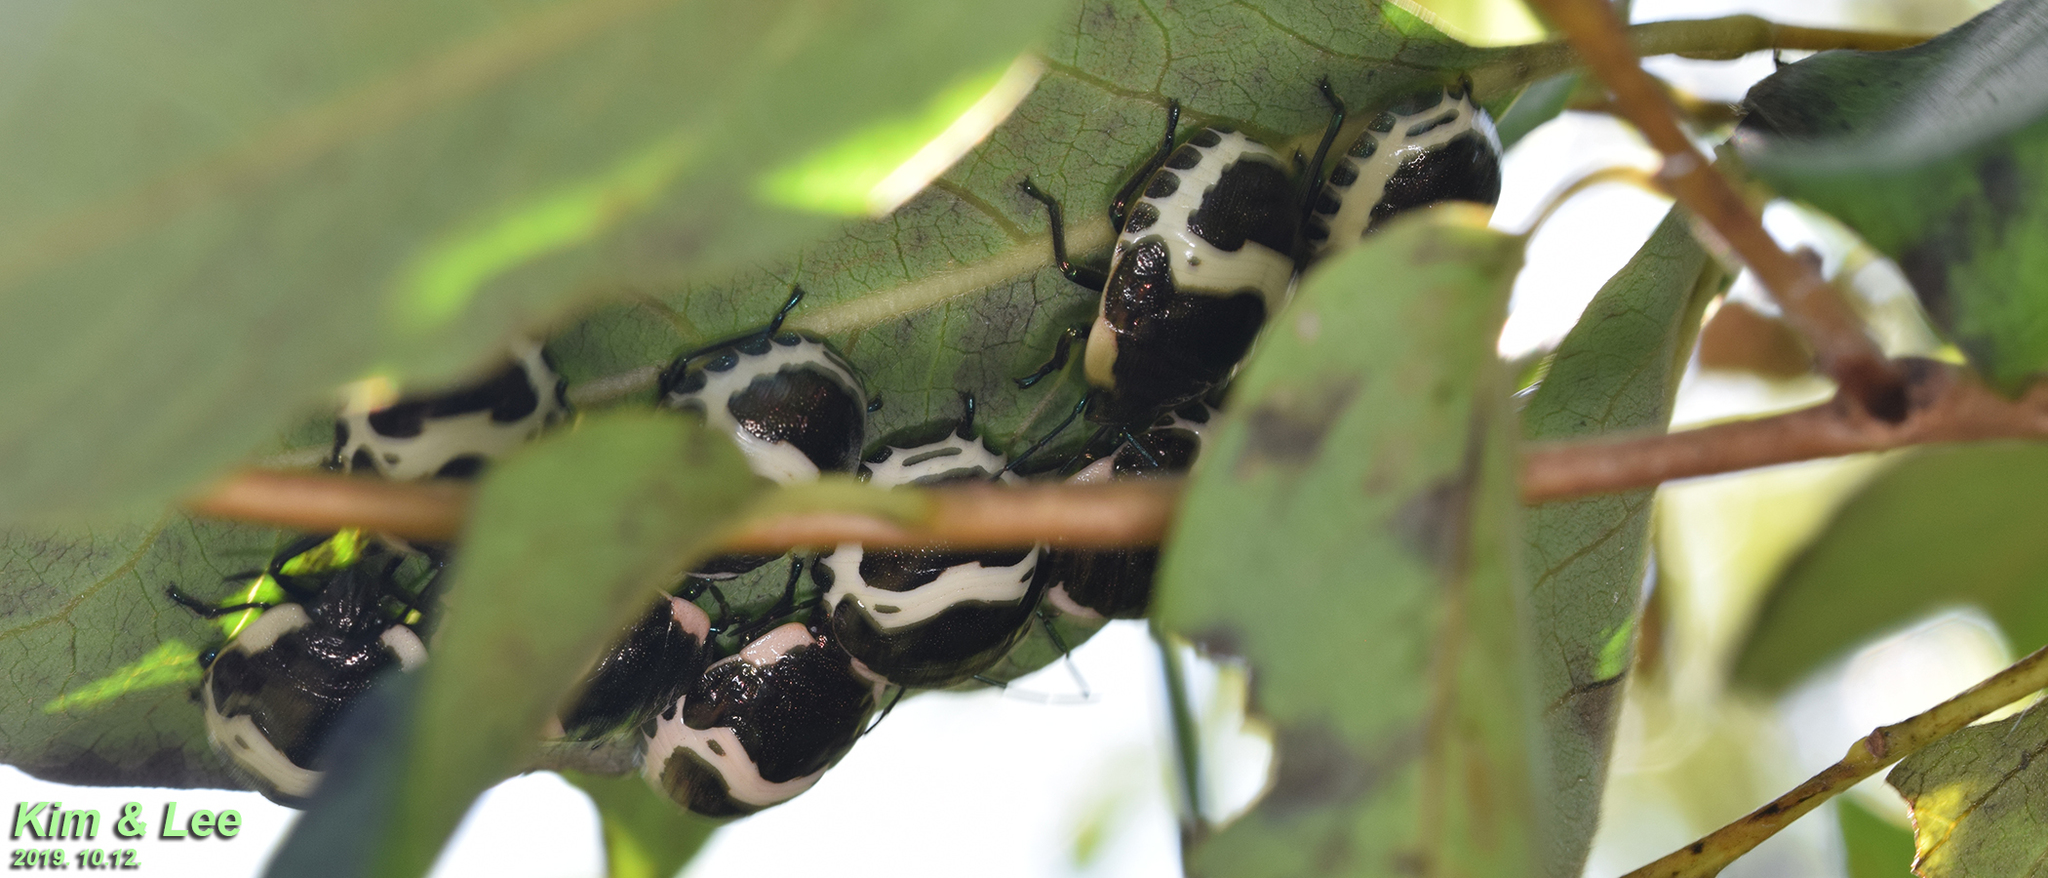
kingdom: Animalia
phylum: Arthropoda
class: Insecta
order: Hemiptera
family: Scutelleridae
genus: Poecilocoris
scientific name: Poecilocoris lewisi
